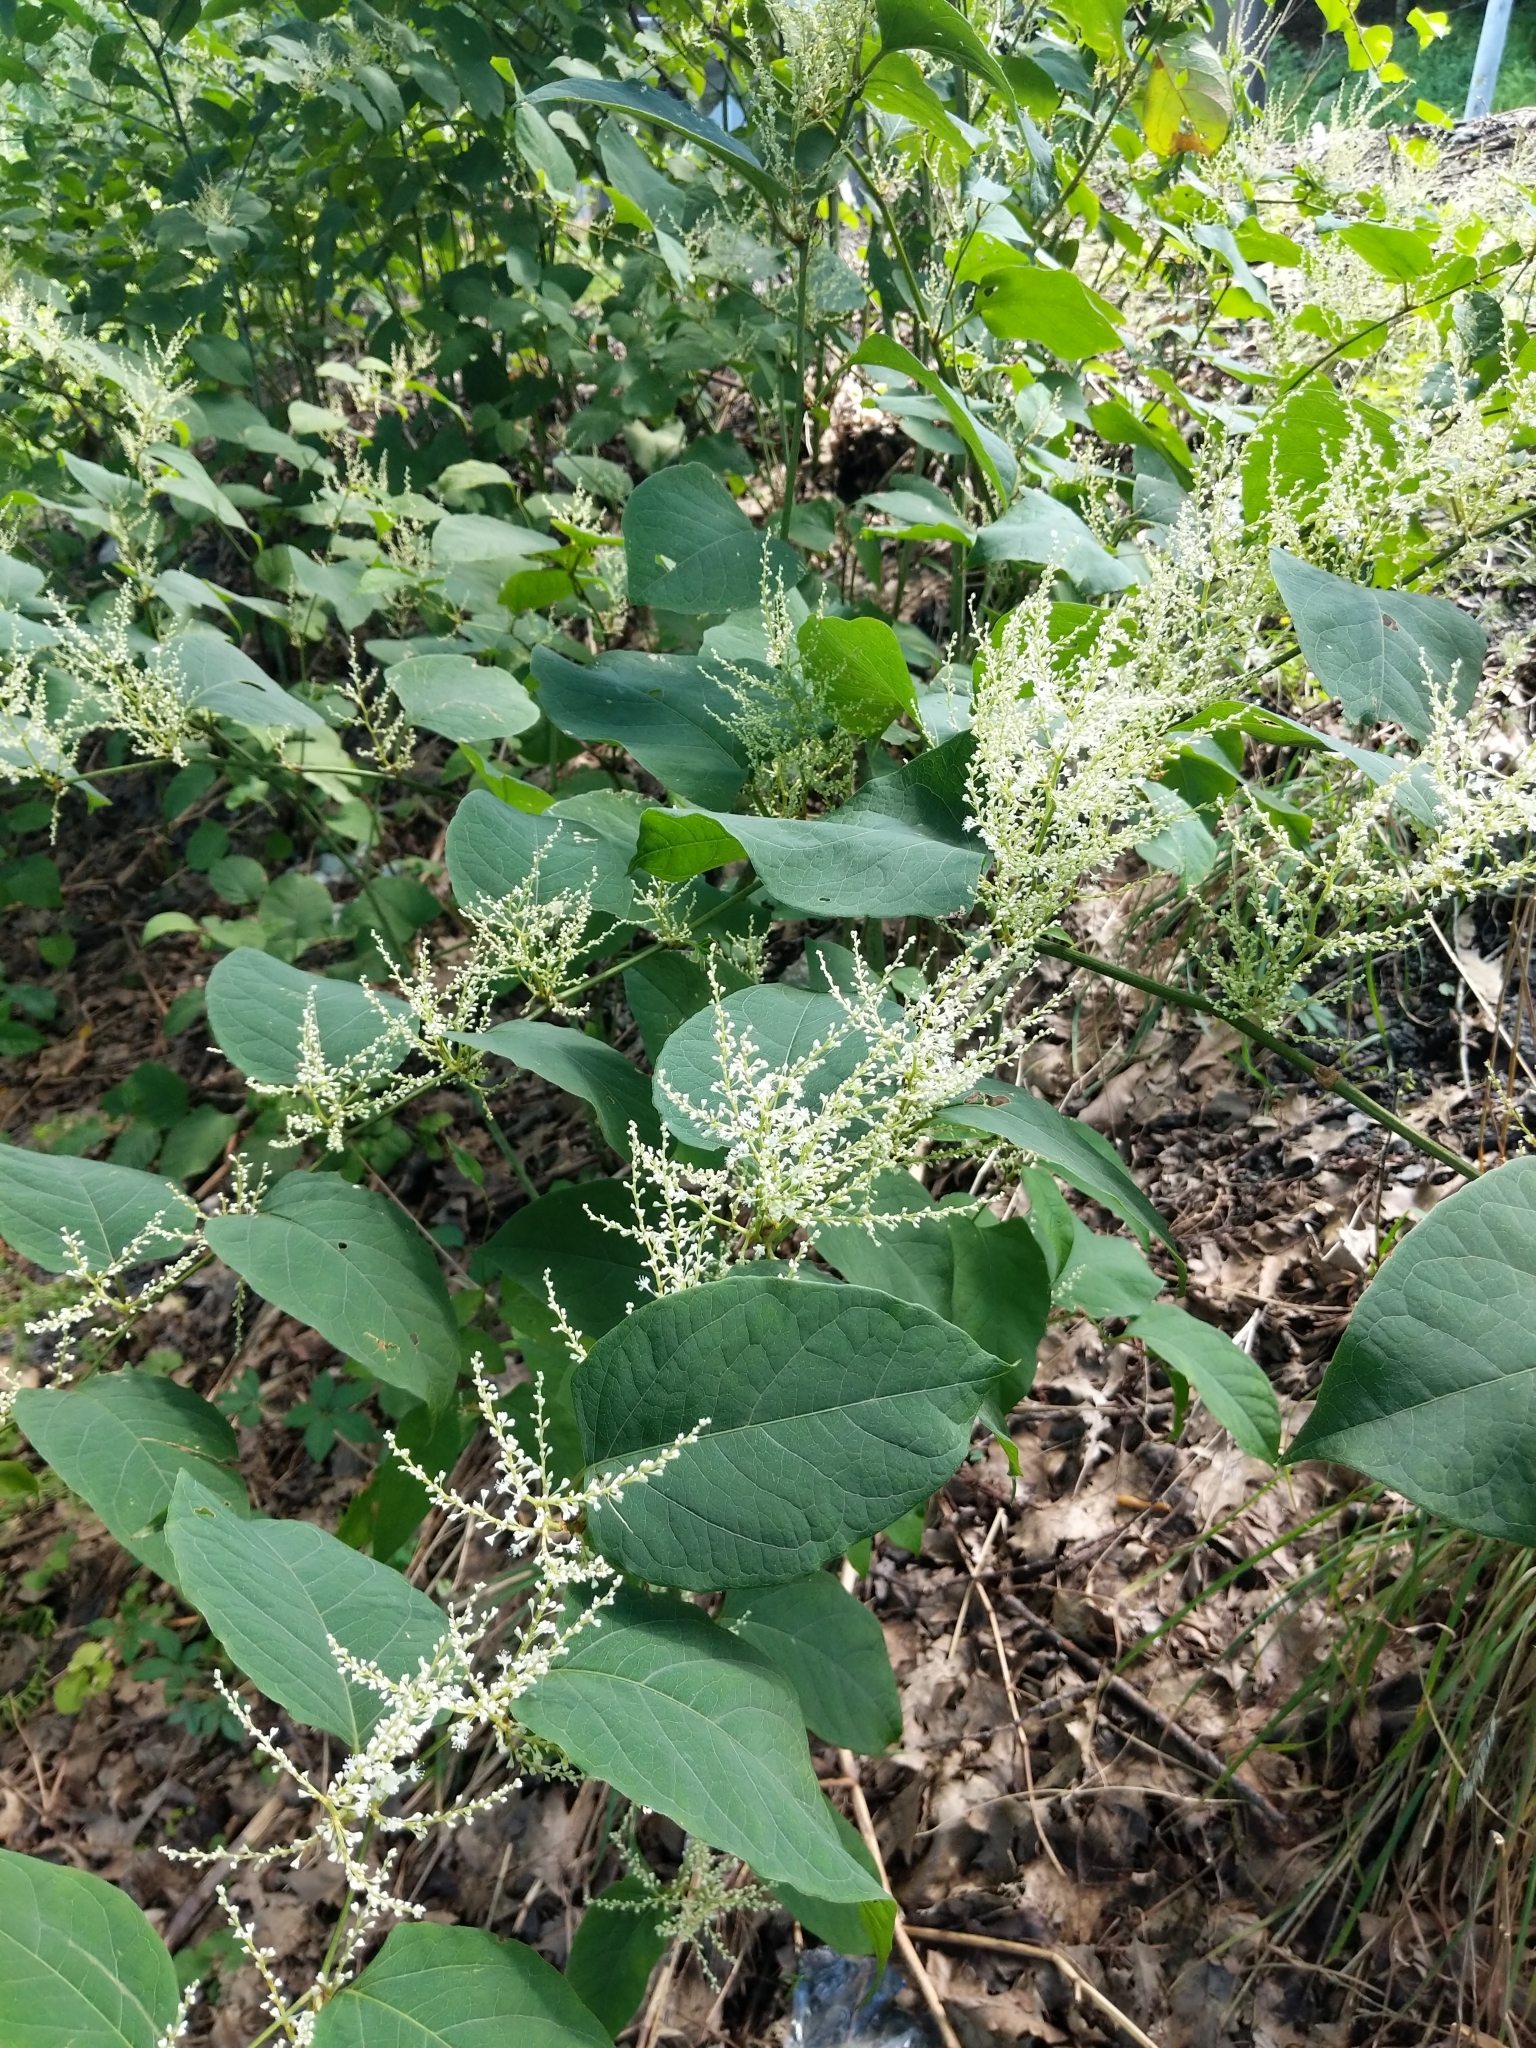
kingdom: Plantae
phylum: Tracheophyta
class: Magnoliopsida
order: Caryophyllales
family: Polygonaceae
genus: Reynoutria
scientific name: Reynoutria japonica
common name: Japanese knotweed
